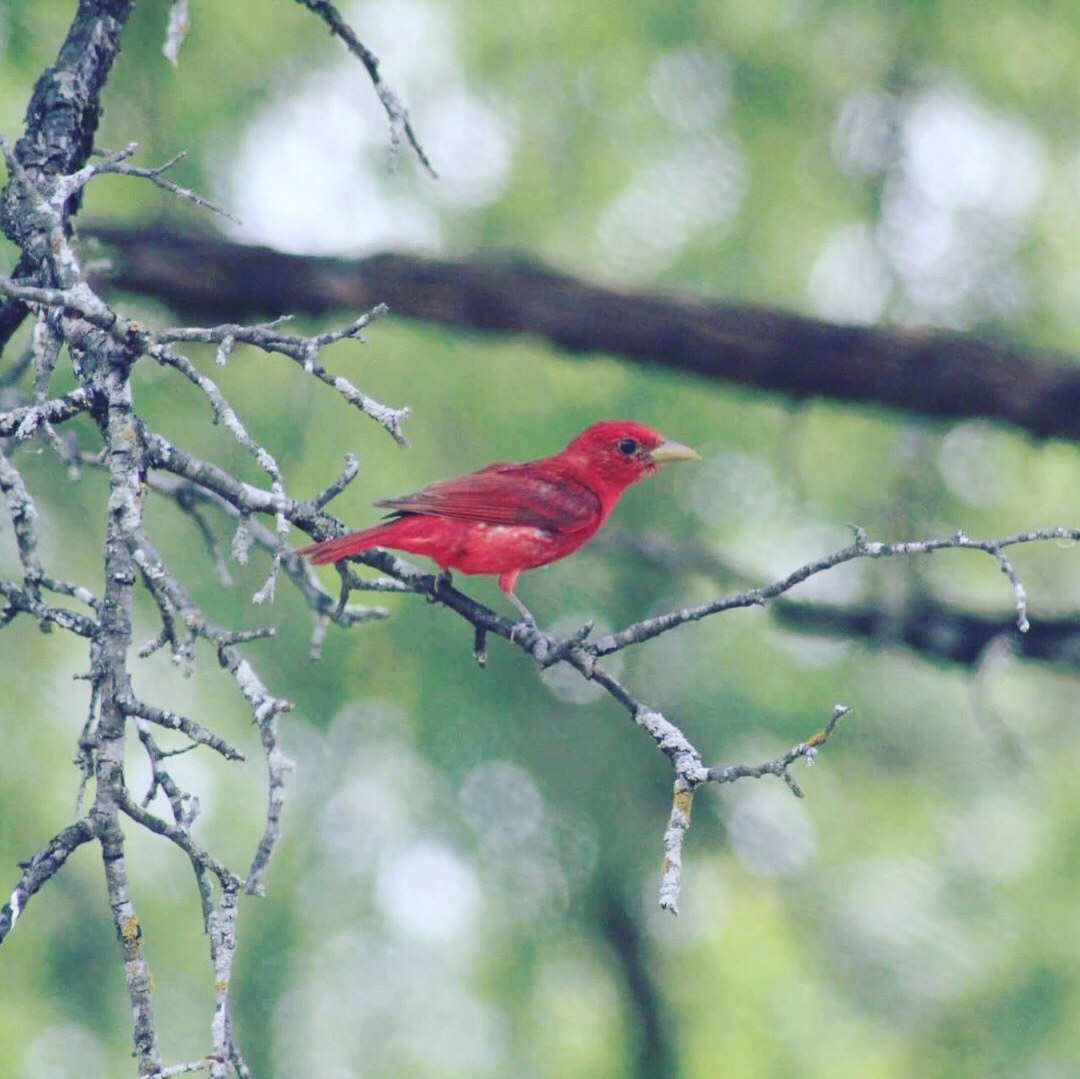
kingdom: Animalia
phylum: Chordata
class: Aves
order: Passeriformes
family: Cardinalidae
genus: Piranga
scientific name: Piranga rubra
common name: Summer tanager
